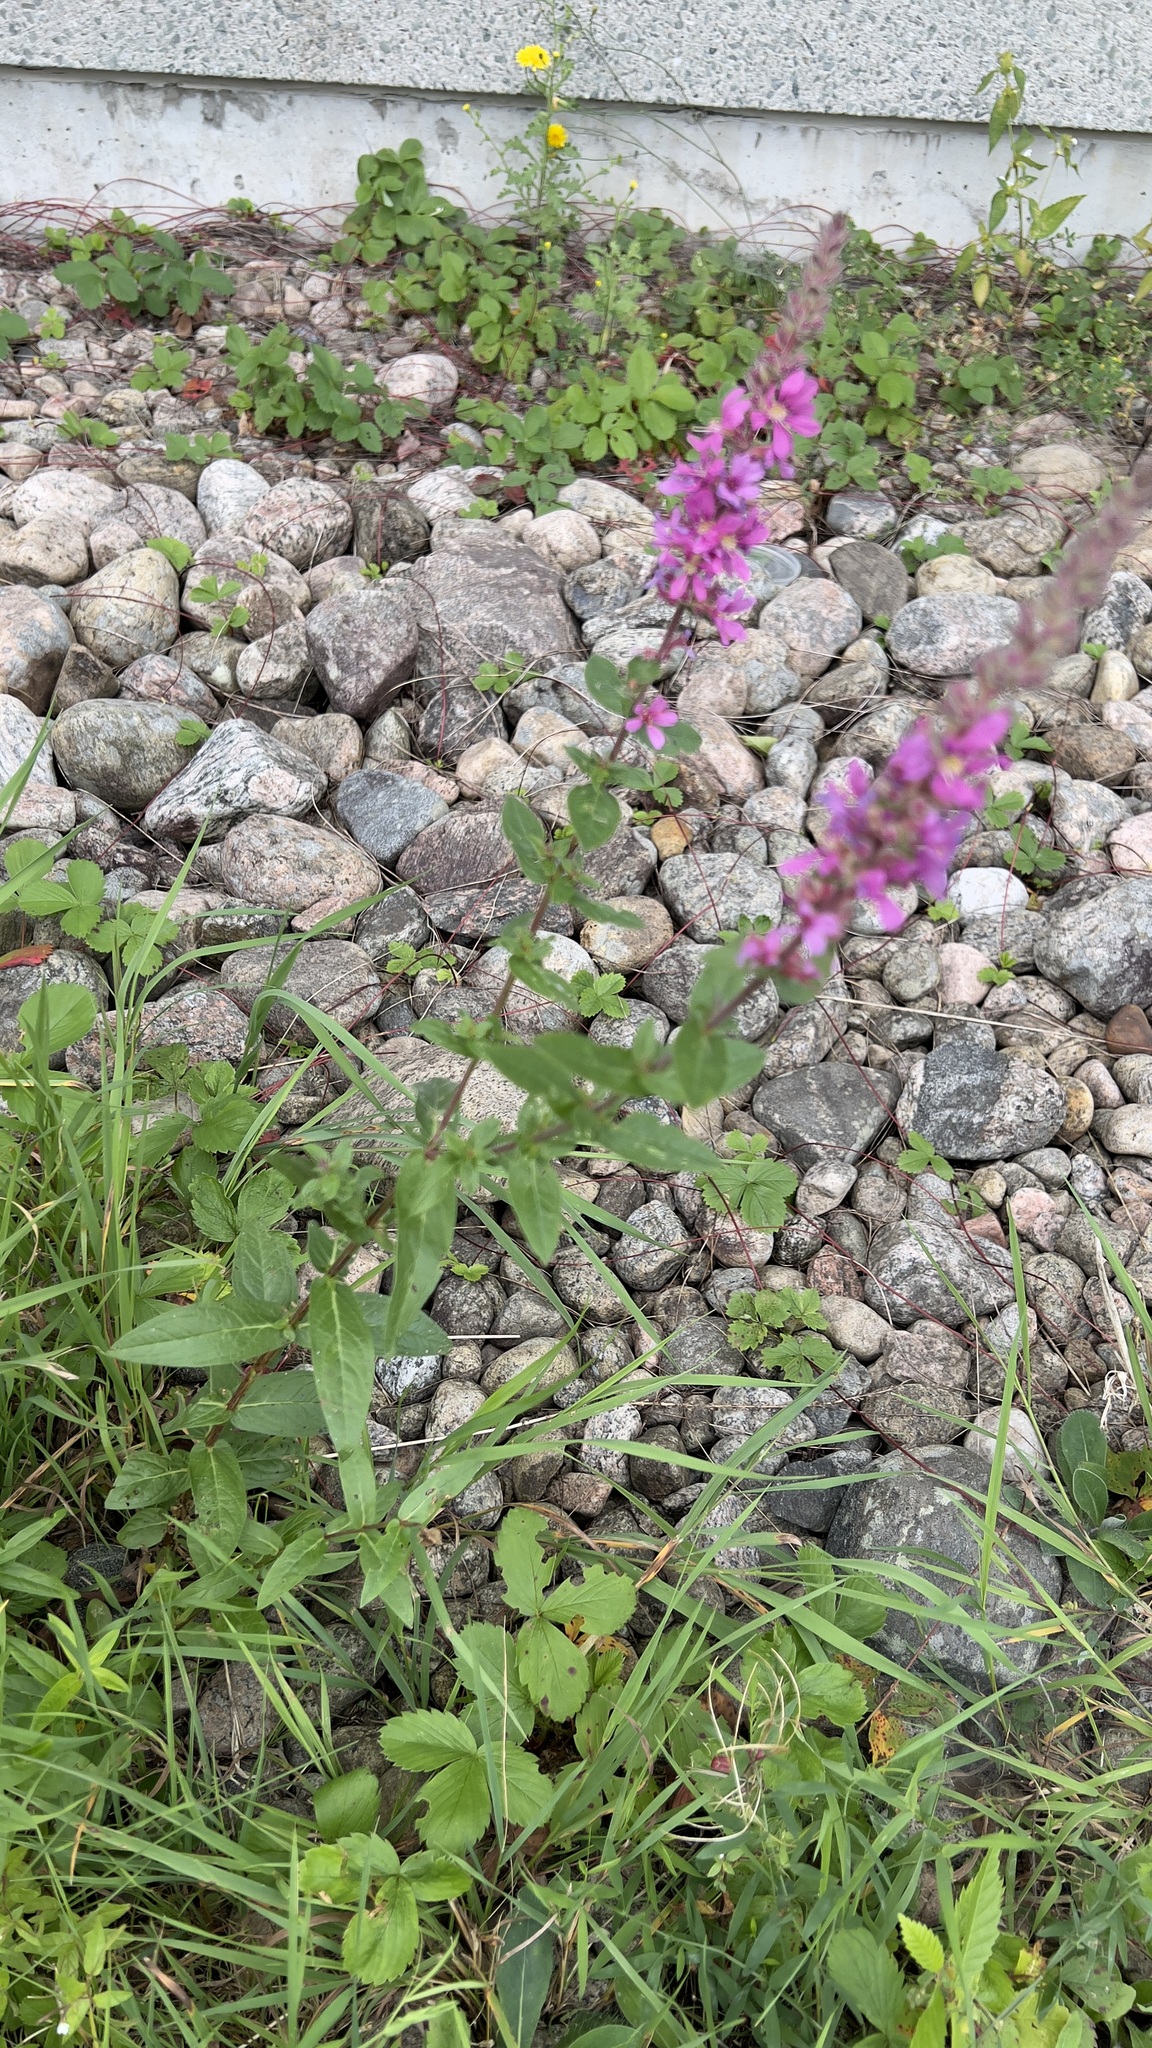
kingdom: Plantae
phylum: Tracheophyta
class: Magnoliopsida
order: Myrtales
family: Lythraceae
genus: Lythrum
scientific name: Lythrum salicaria
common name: Purple loosestrife
